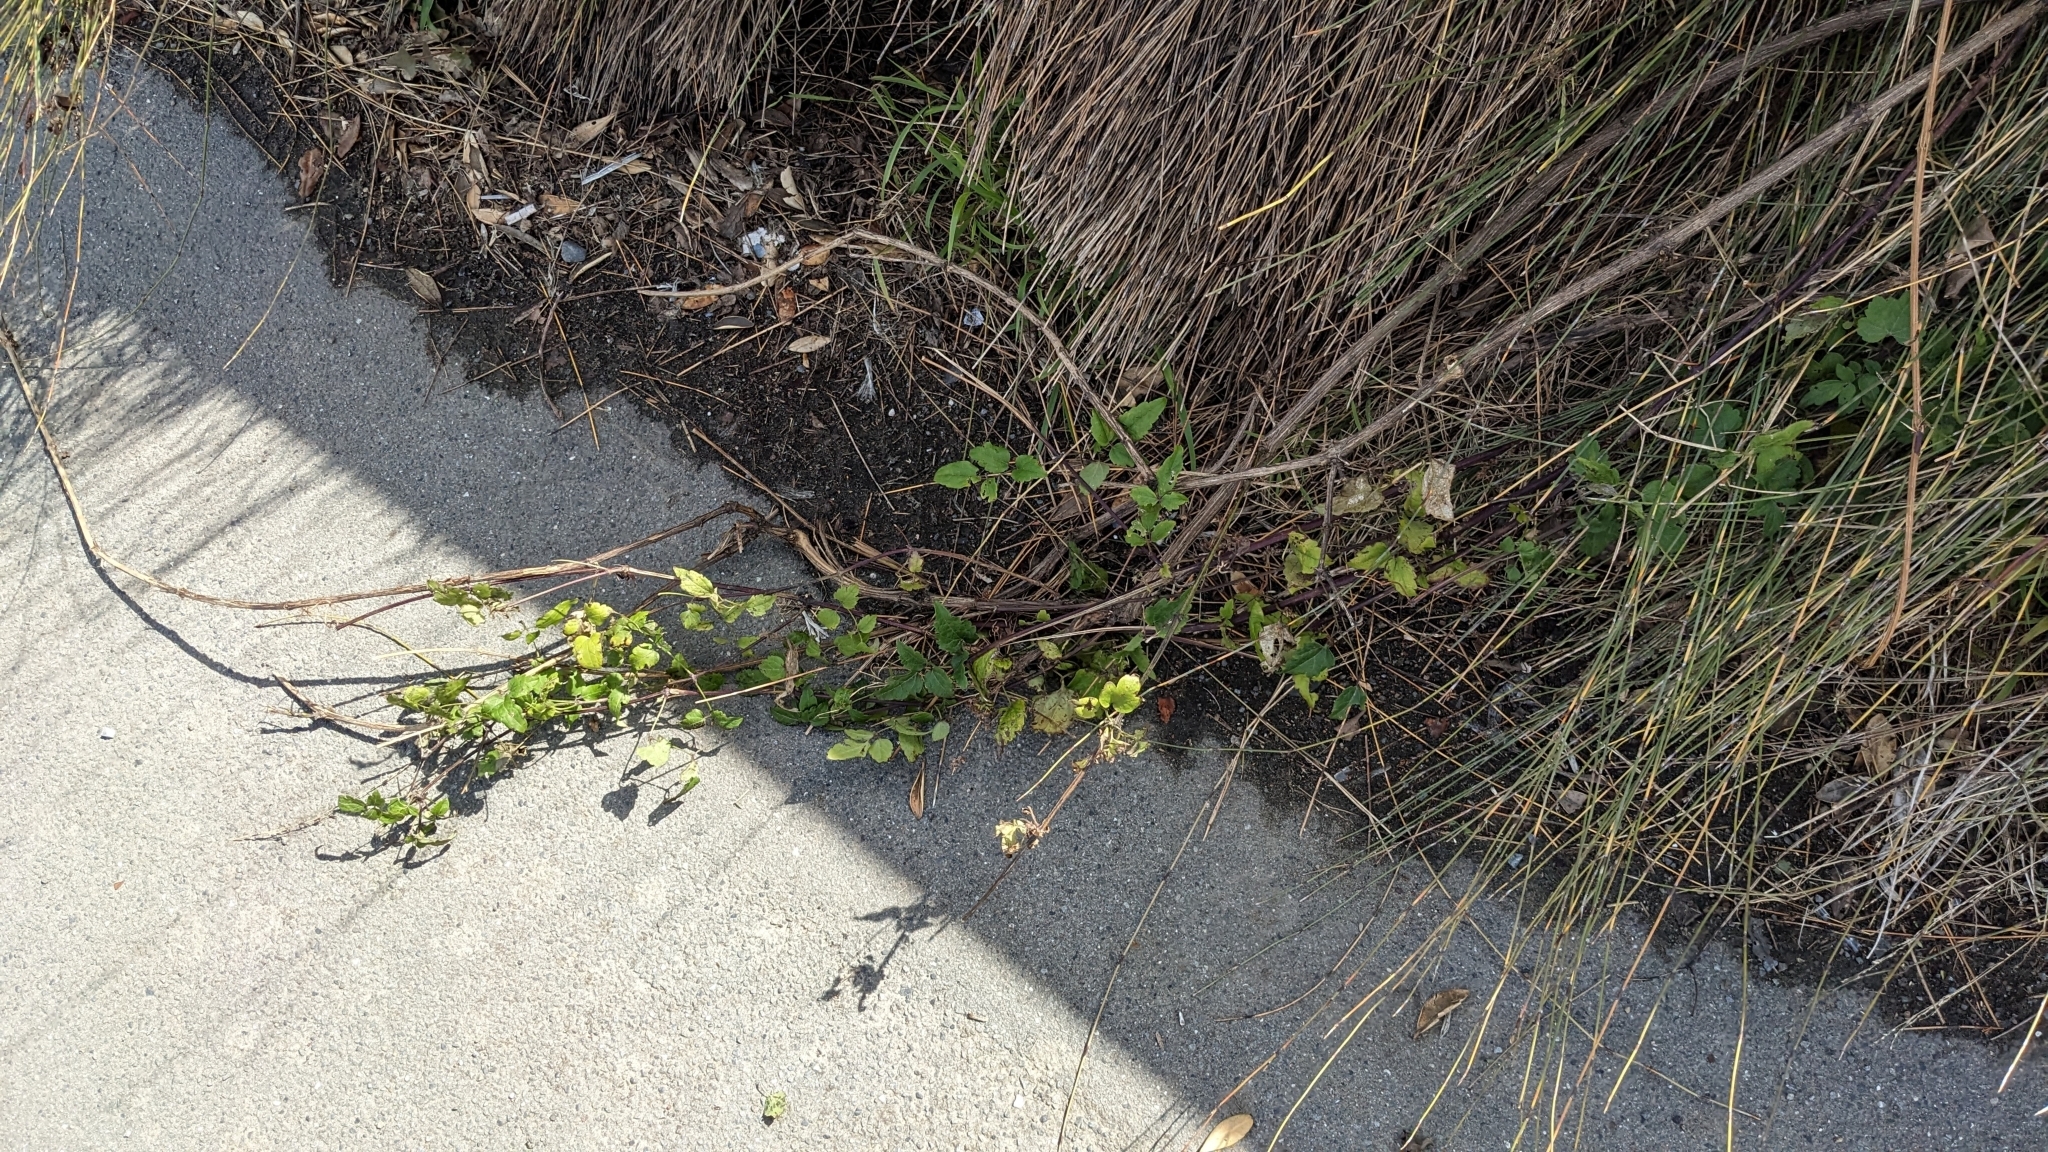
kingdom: Plantae
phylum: Tracheophyta
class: Magnoliopsida
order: Ranunculales
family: Ranunculaceae
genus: Clematis
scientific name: Clematis vitalba
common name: Evergreen clematis
